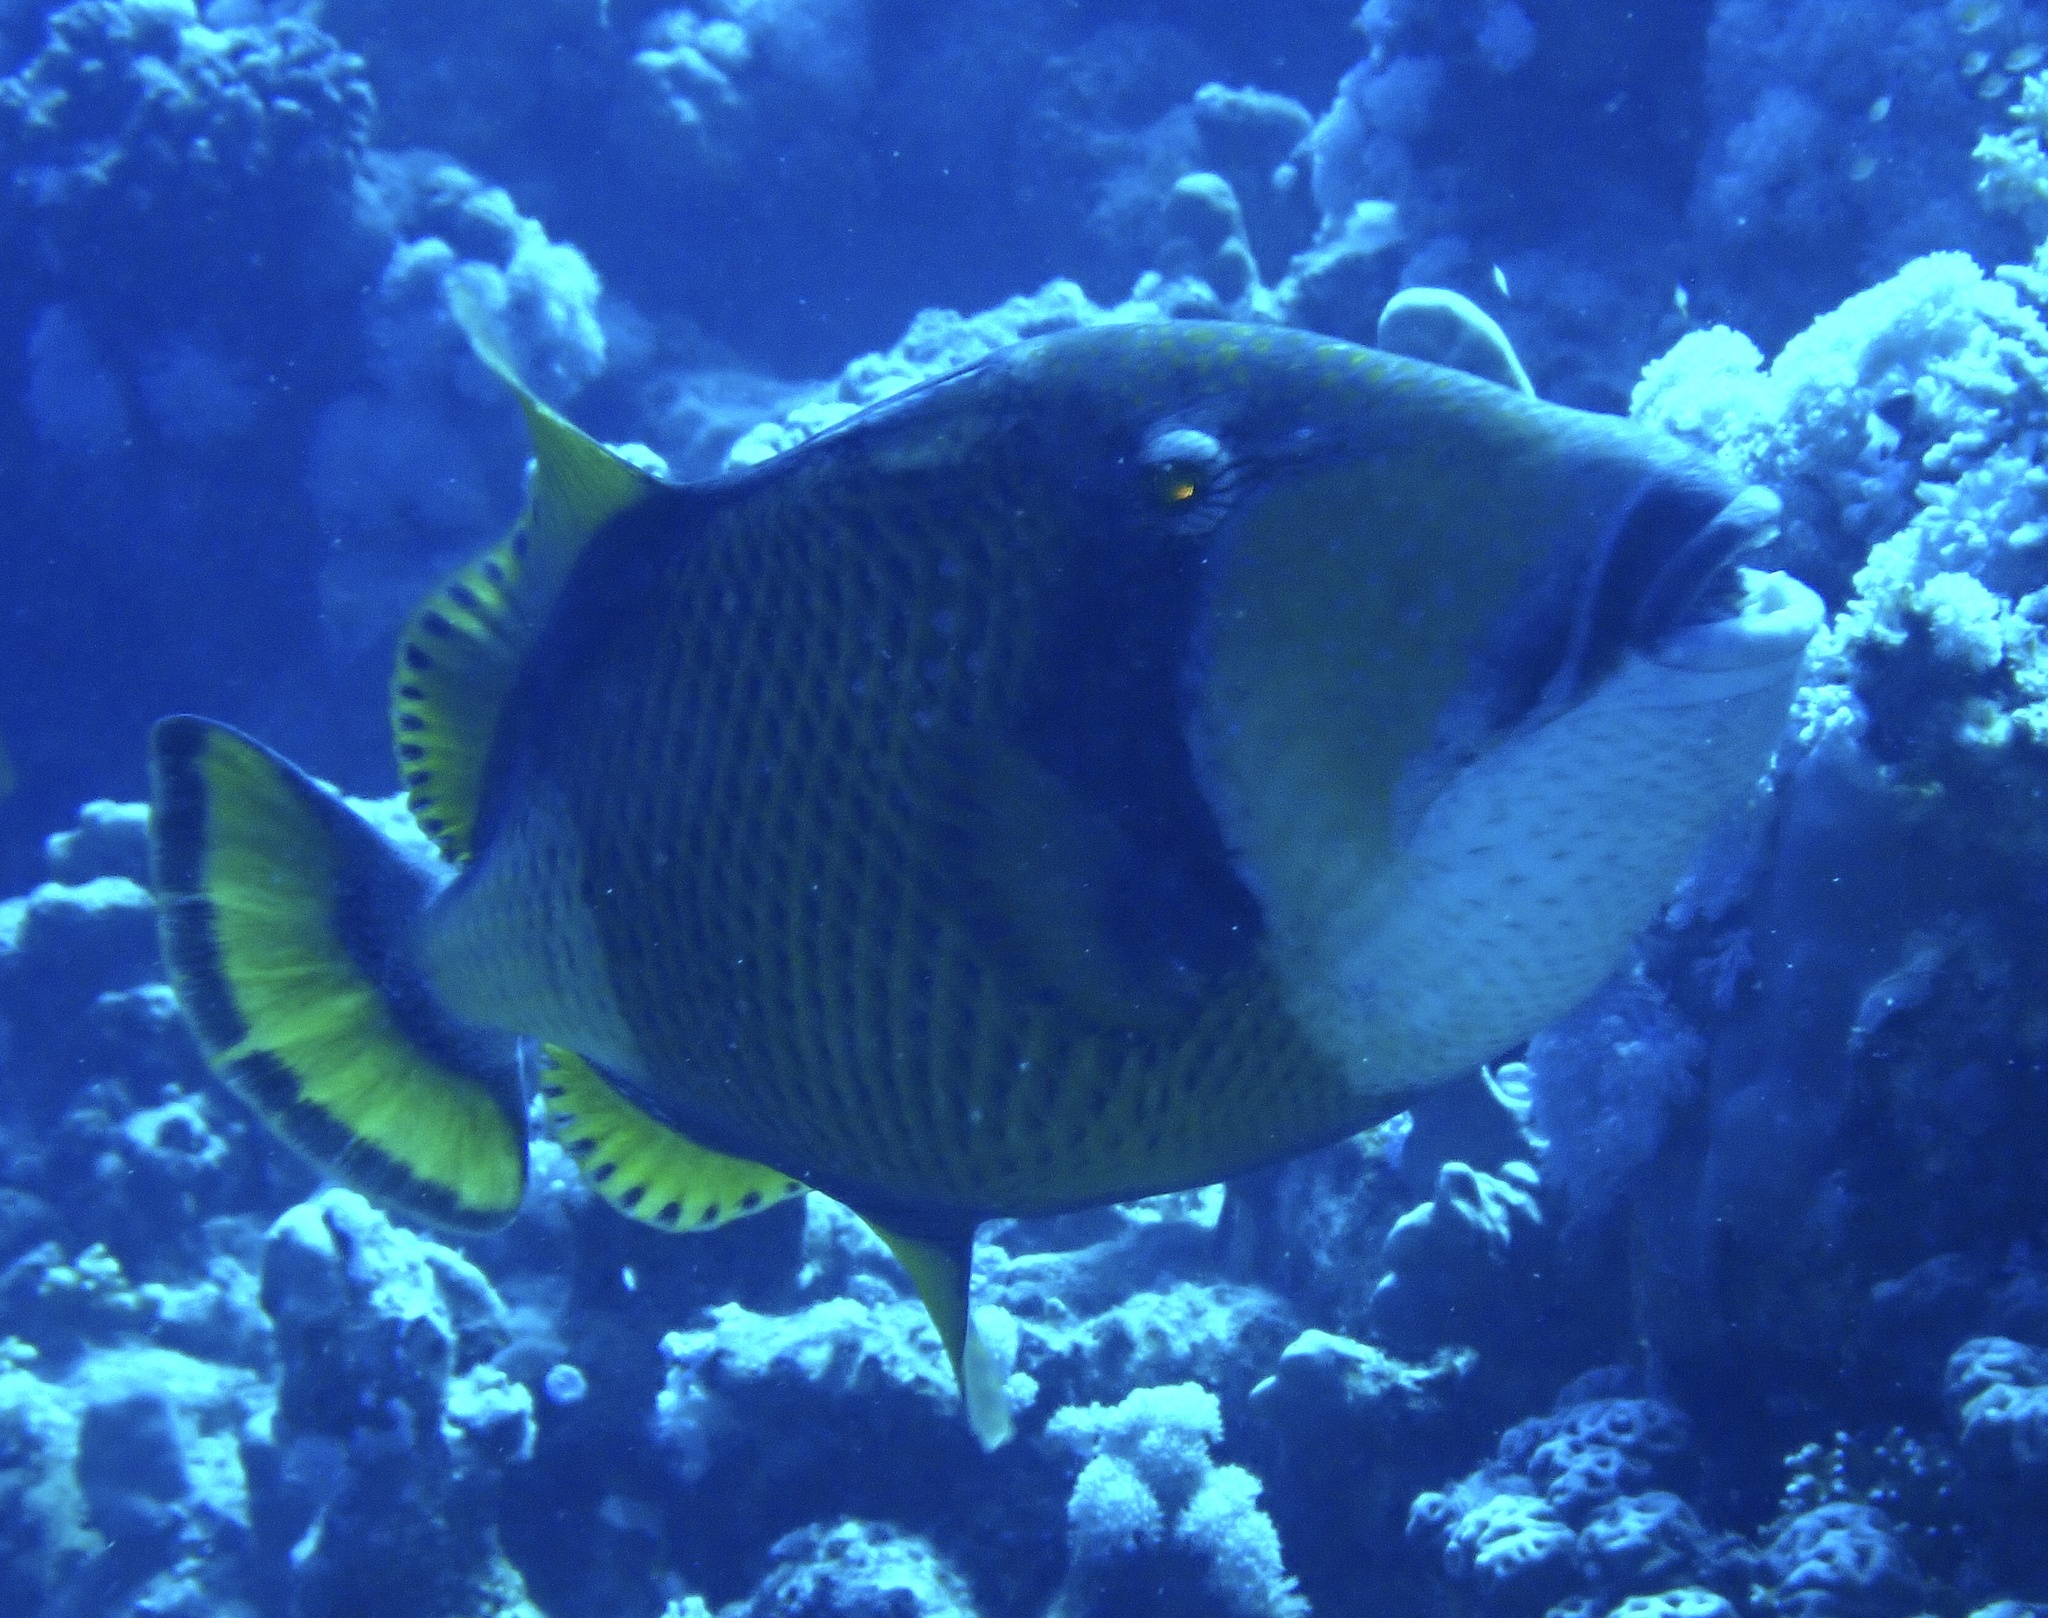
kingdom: Animalia
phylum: Chordata
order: Tetraodontiformes
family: Balistidae
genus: Balistoides
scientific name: Balistoides viridescens
